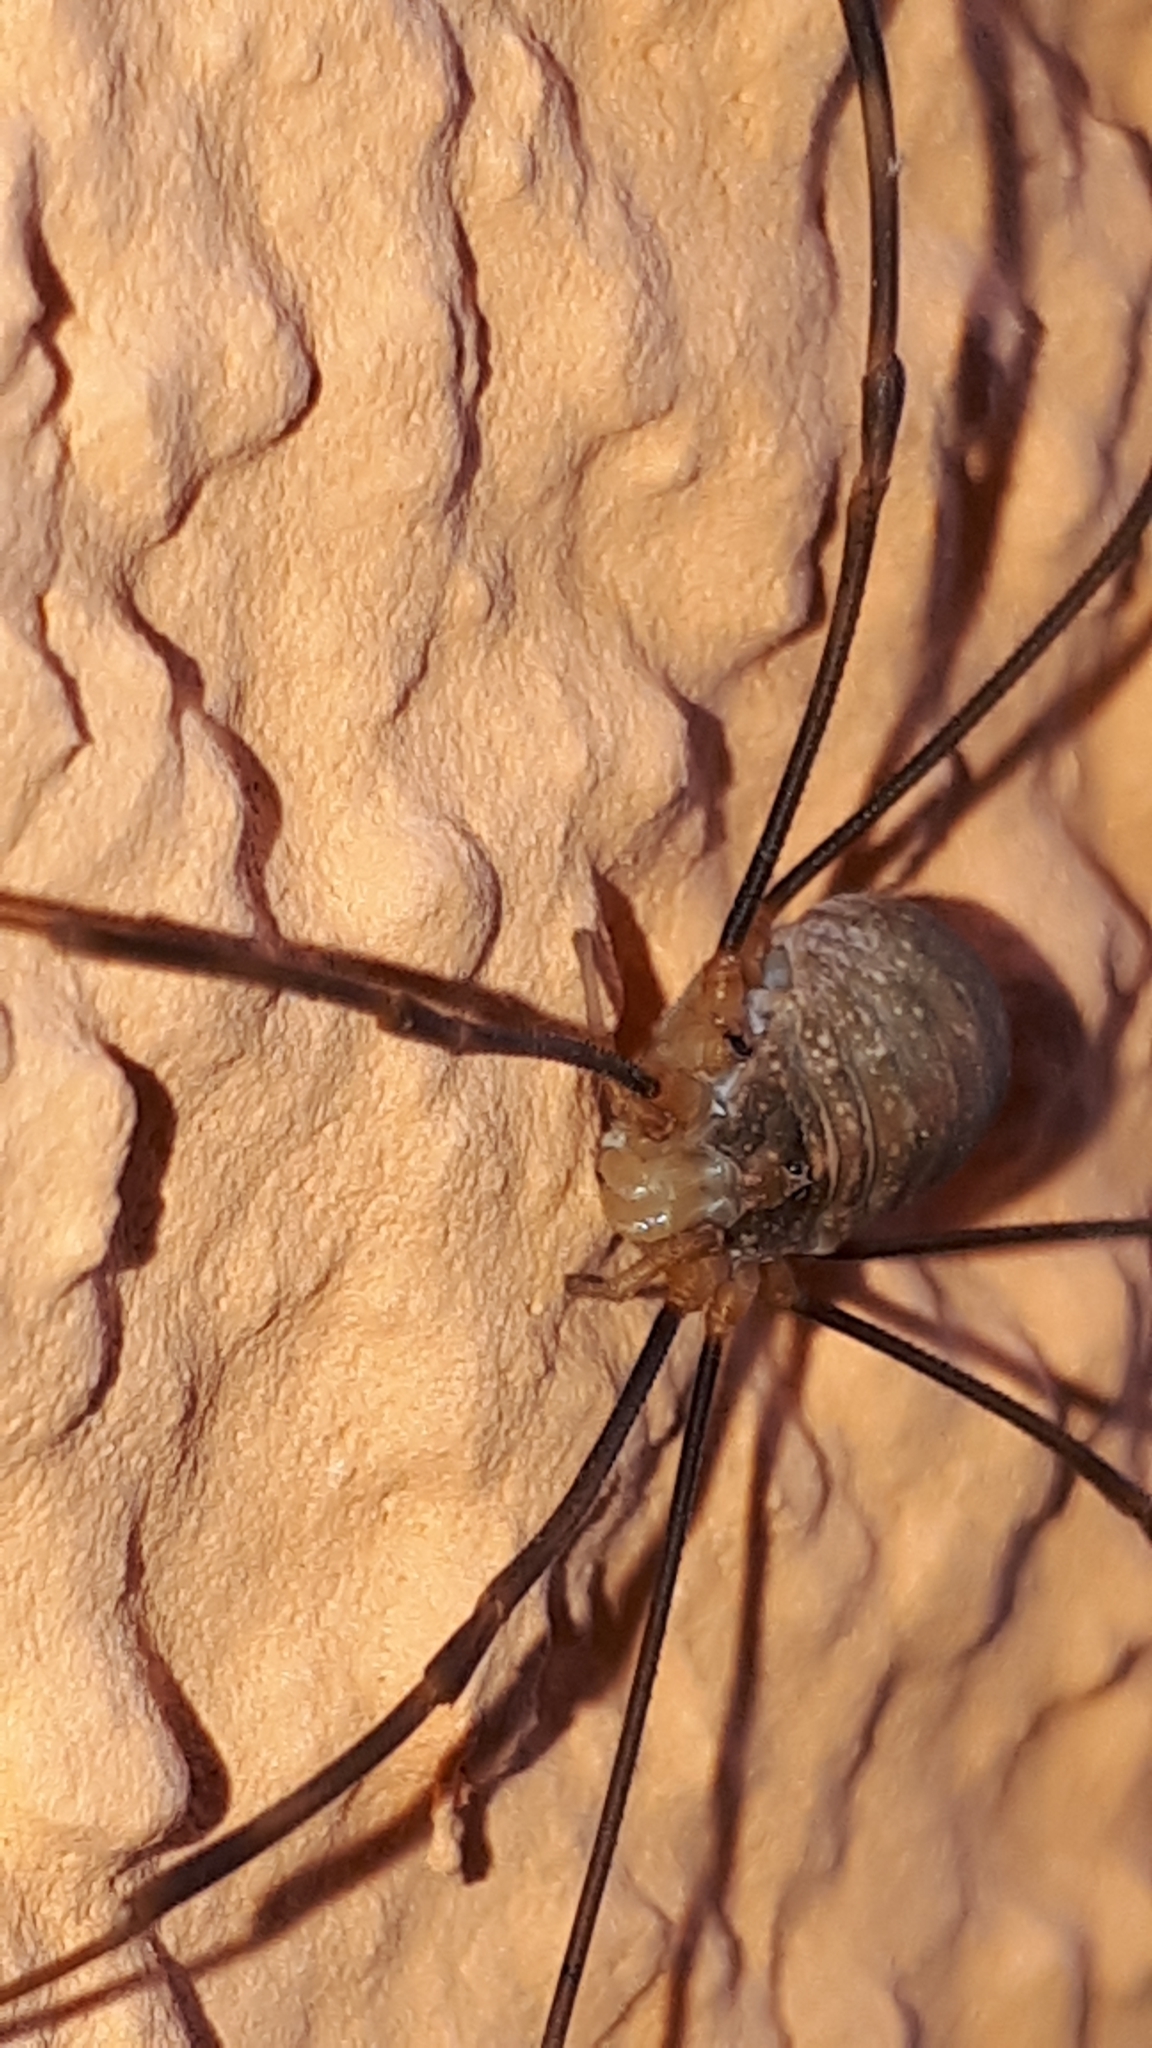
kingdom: Animalia
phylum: Arthropoda
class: Arachnida
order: Opiliones
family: Phalangiidae
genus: Opilio
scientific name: Opilio canestrinii
